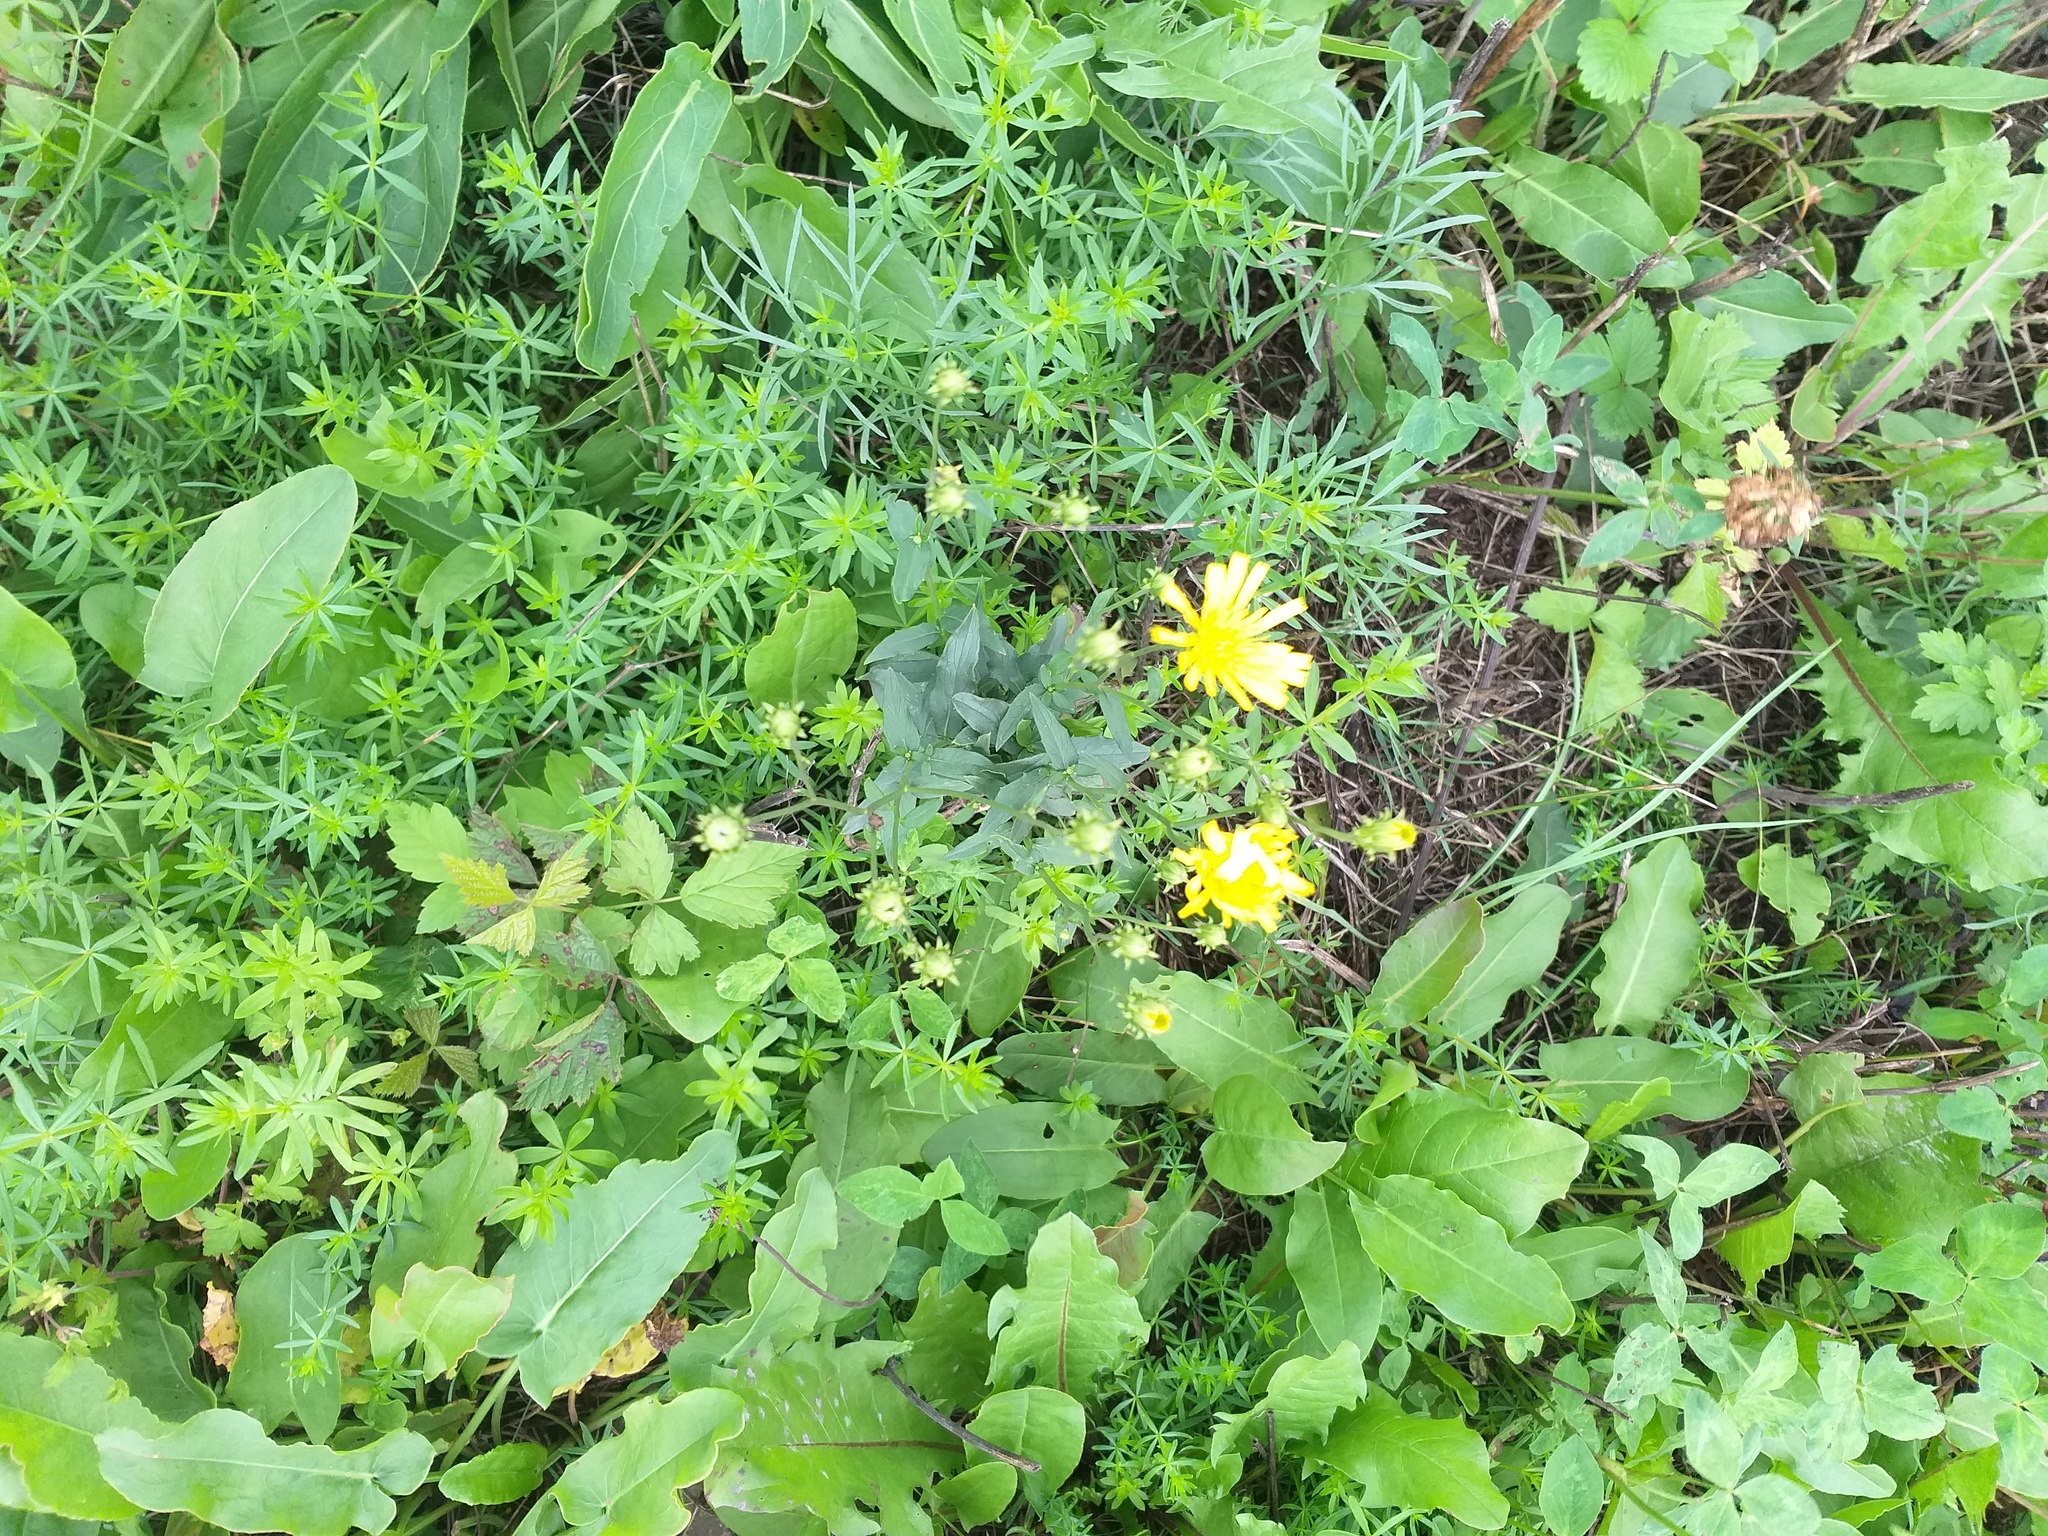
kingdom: Plantae
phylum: Tracheophyta
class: Magnoliopsida
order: Asterales
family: Asteraceae
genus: Hieracium
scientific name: Hieracium umbellatum
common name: Northern hawkweed
